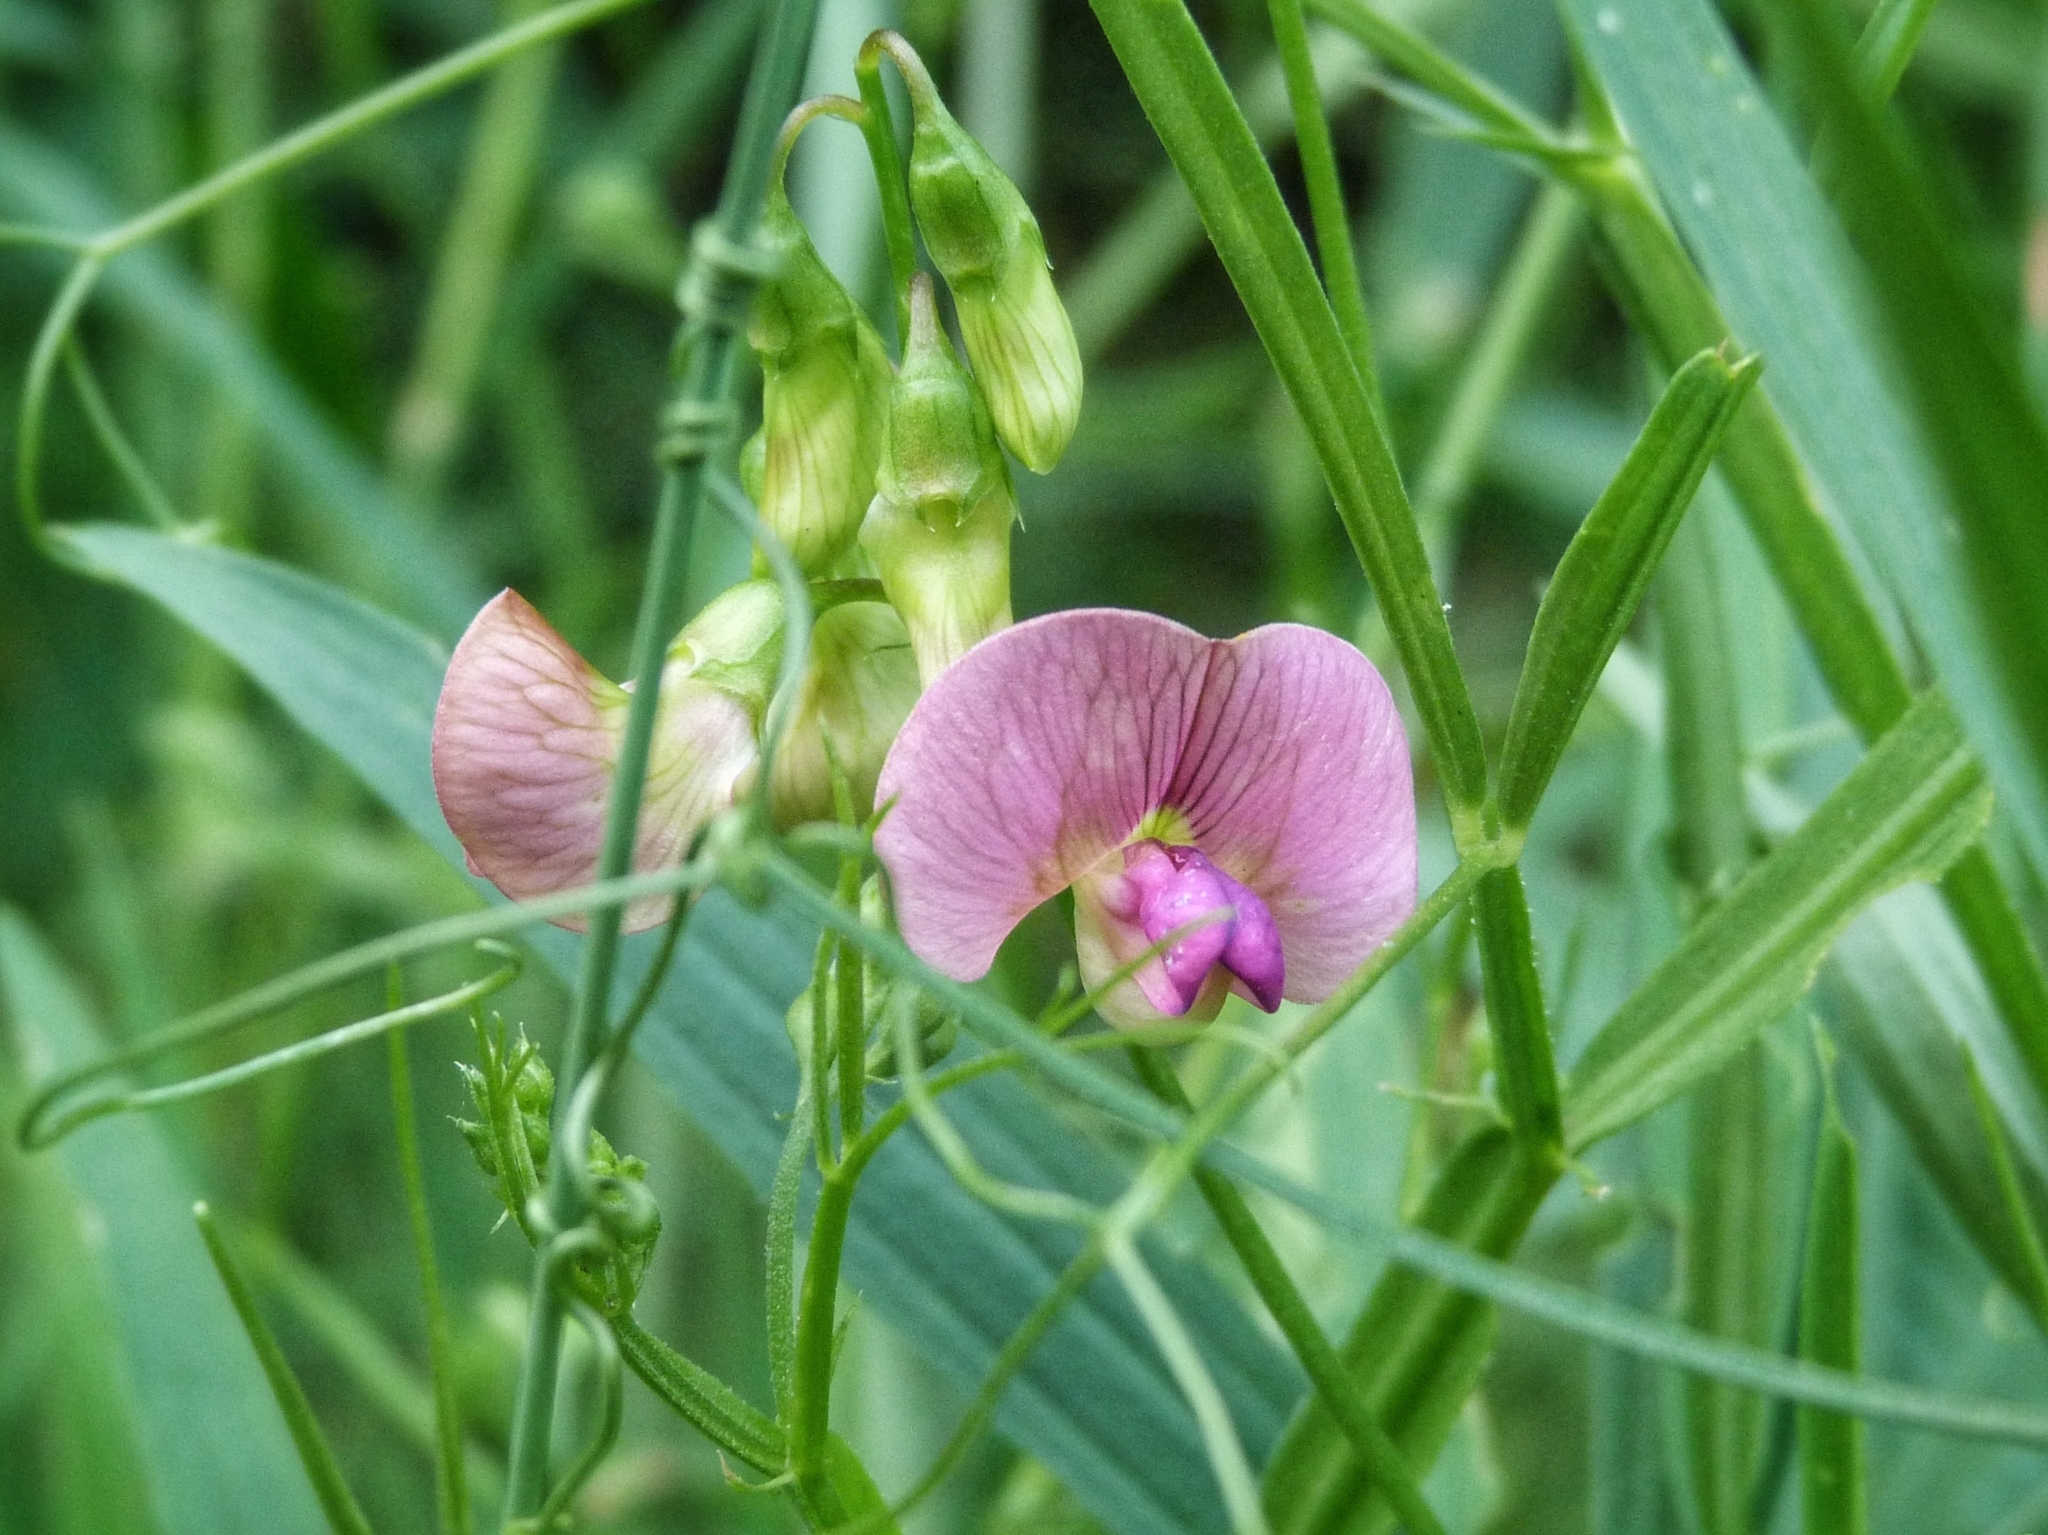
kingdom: Plantae
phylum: Tracheophyta
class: Magnoliopsida
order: Fabales
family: Fabaceae
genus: Lathyrus
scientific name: Lathyrus sylvestris
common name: Flat pea
